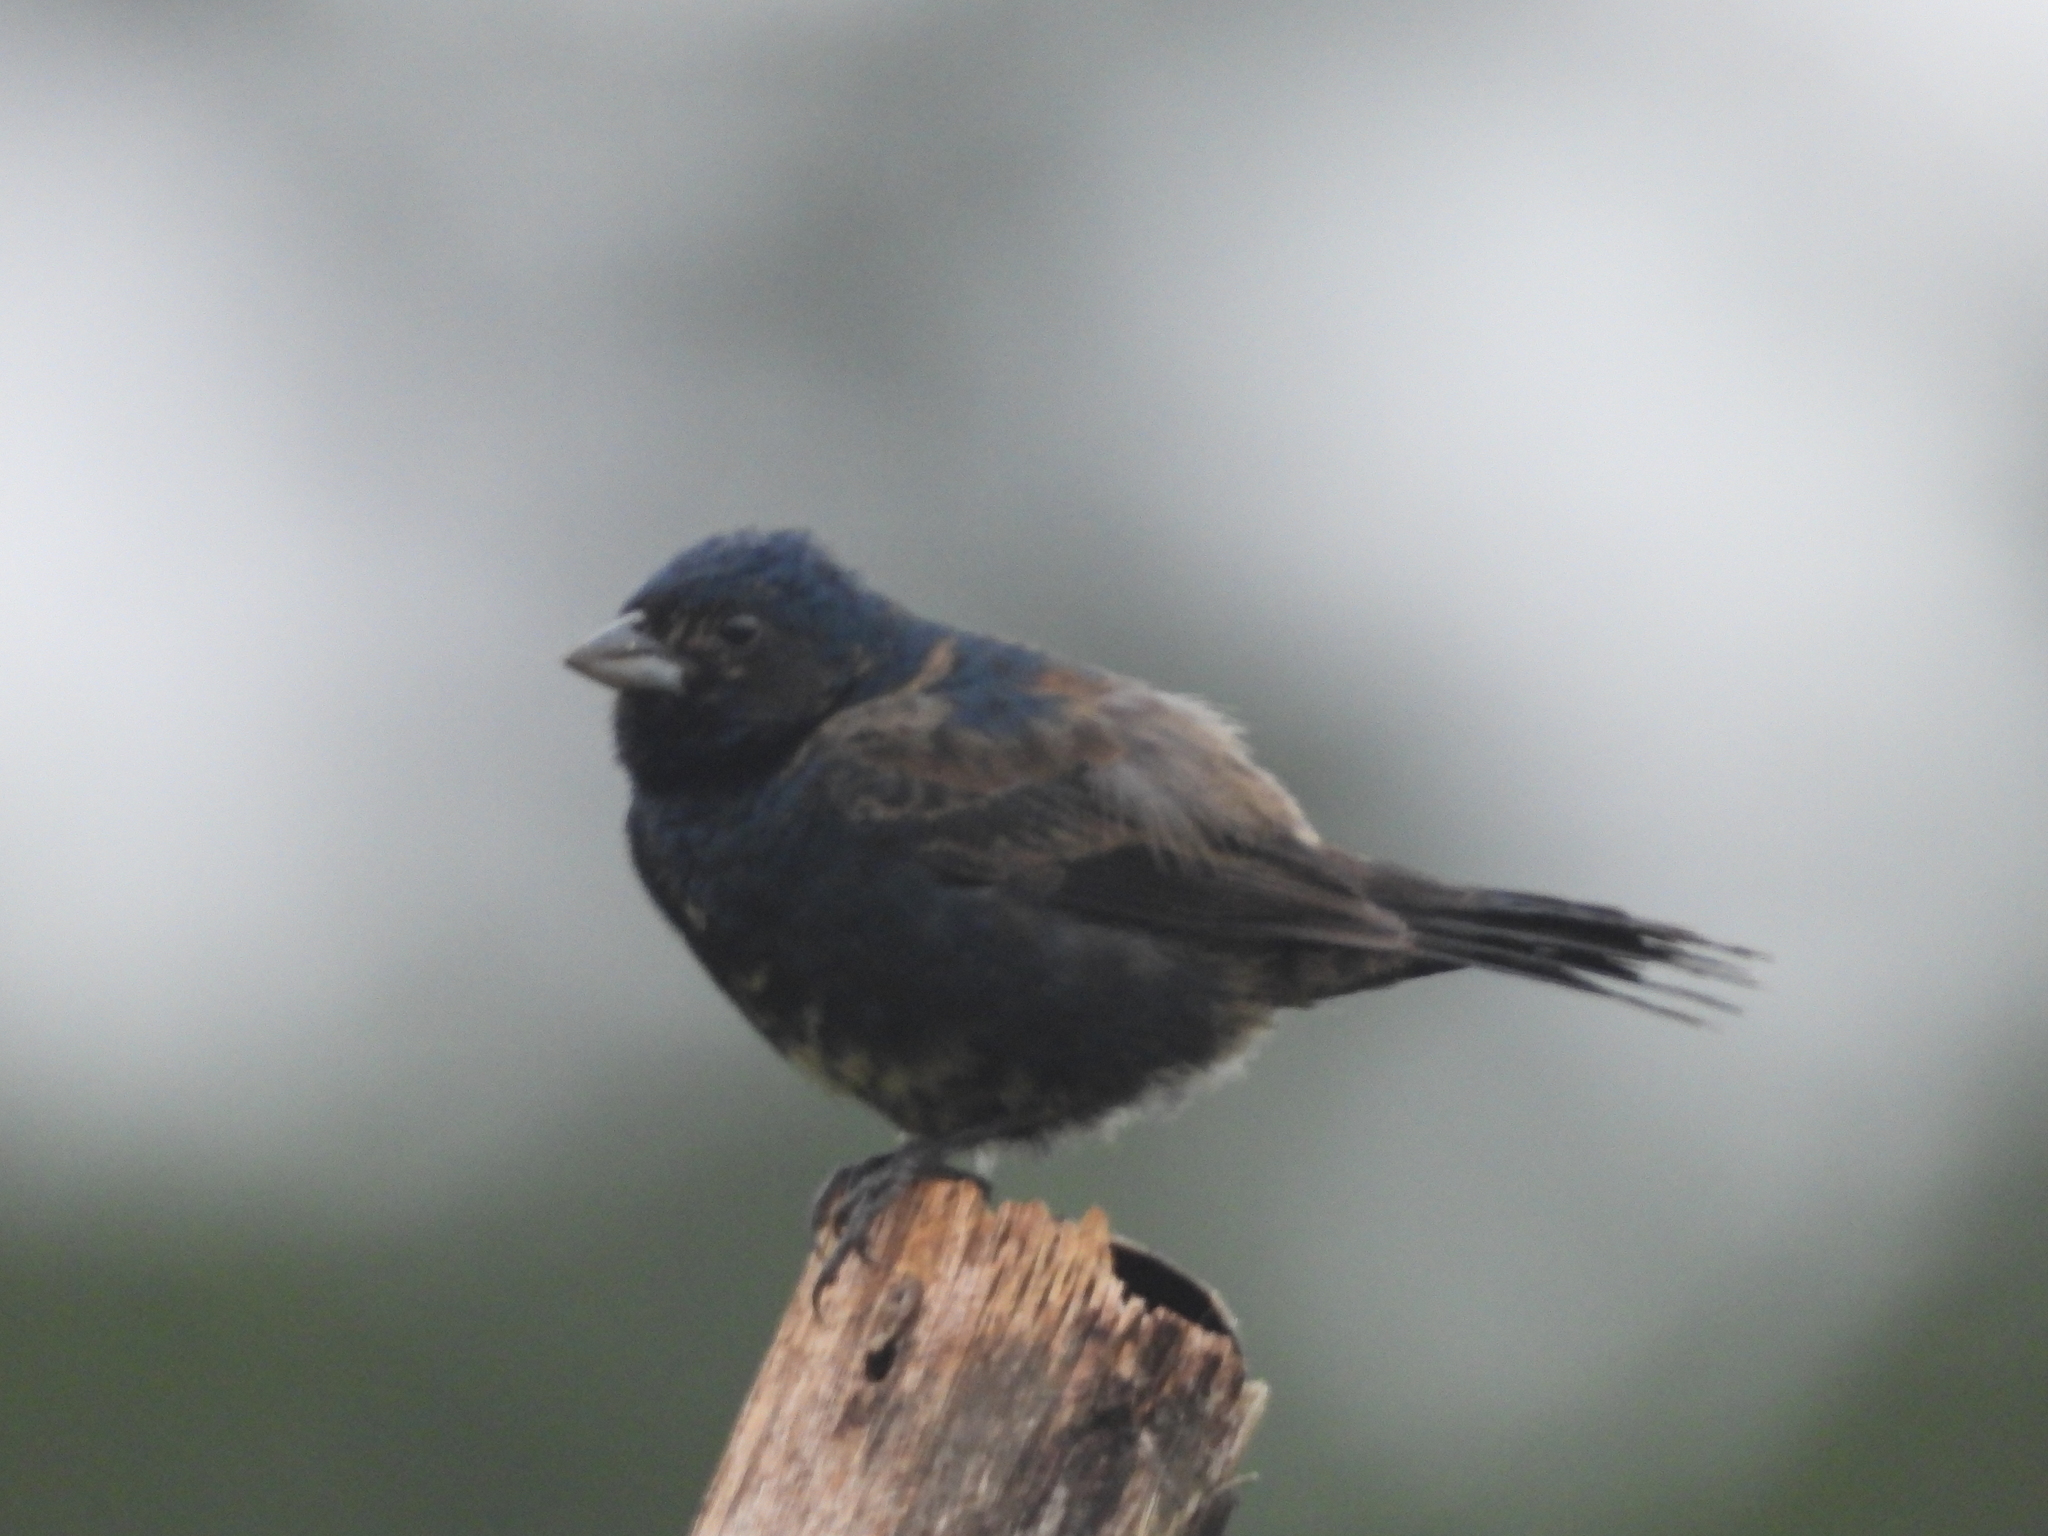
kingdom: Animalia
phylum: Chordata
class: Aves
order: Passeriformes
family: Thraupidae
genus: Volatinia
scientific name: Volatinia jacarina
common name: Blue-black grassquit
